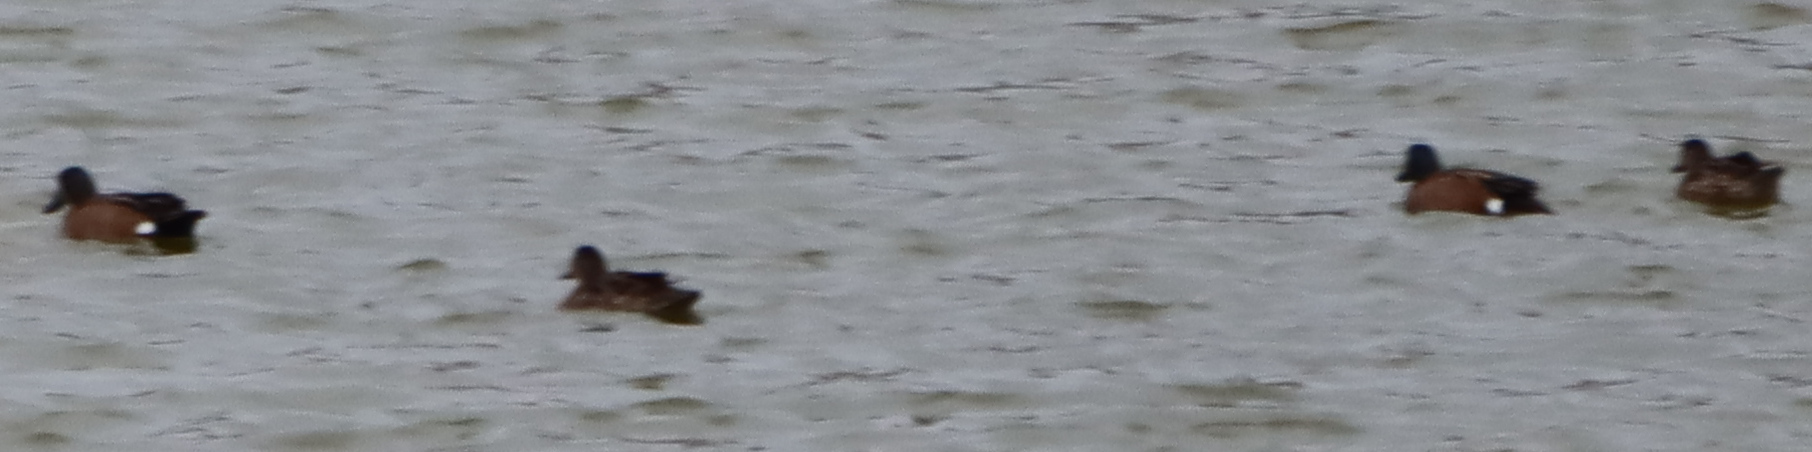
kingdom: Animalia
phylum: Chordata
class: Aves
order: Anseriformes
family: Anatidae
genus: Spatula
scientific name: Spatula discors
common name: Blue-winged teal
